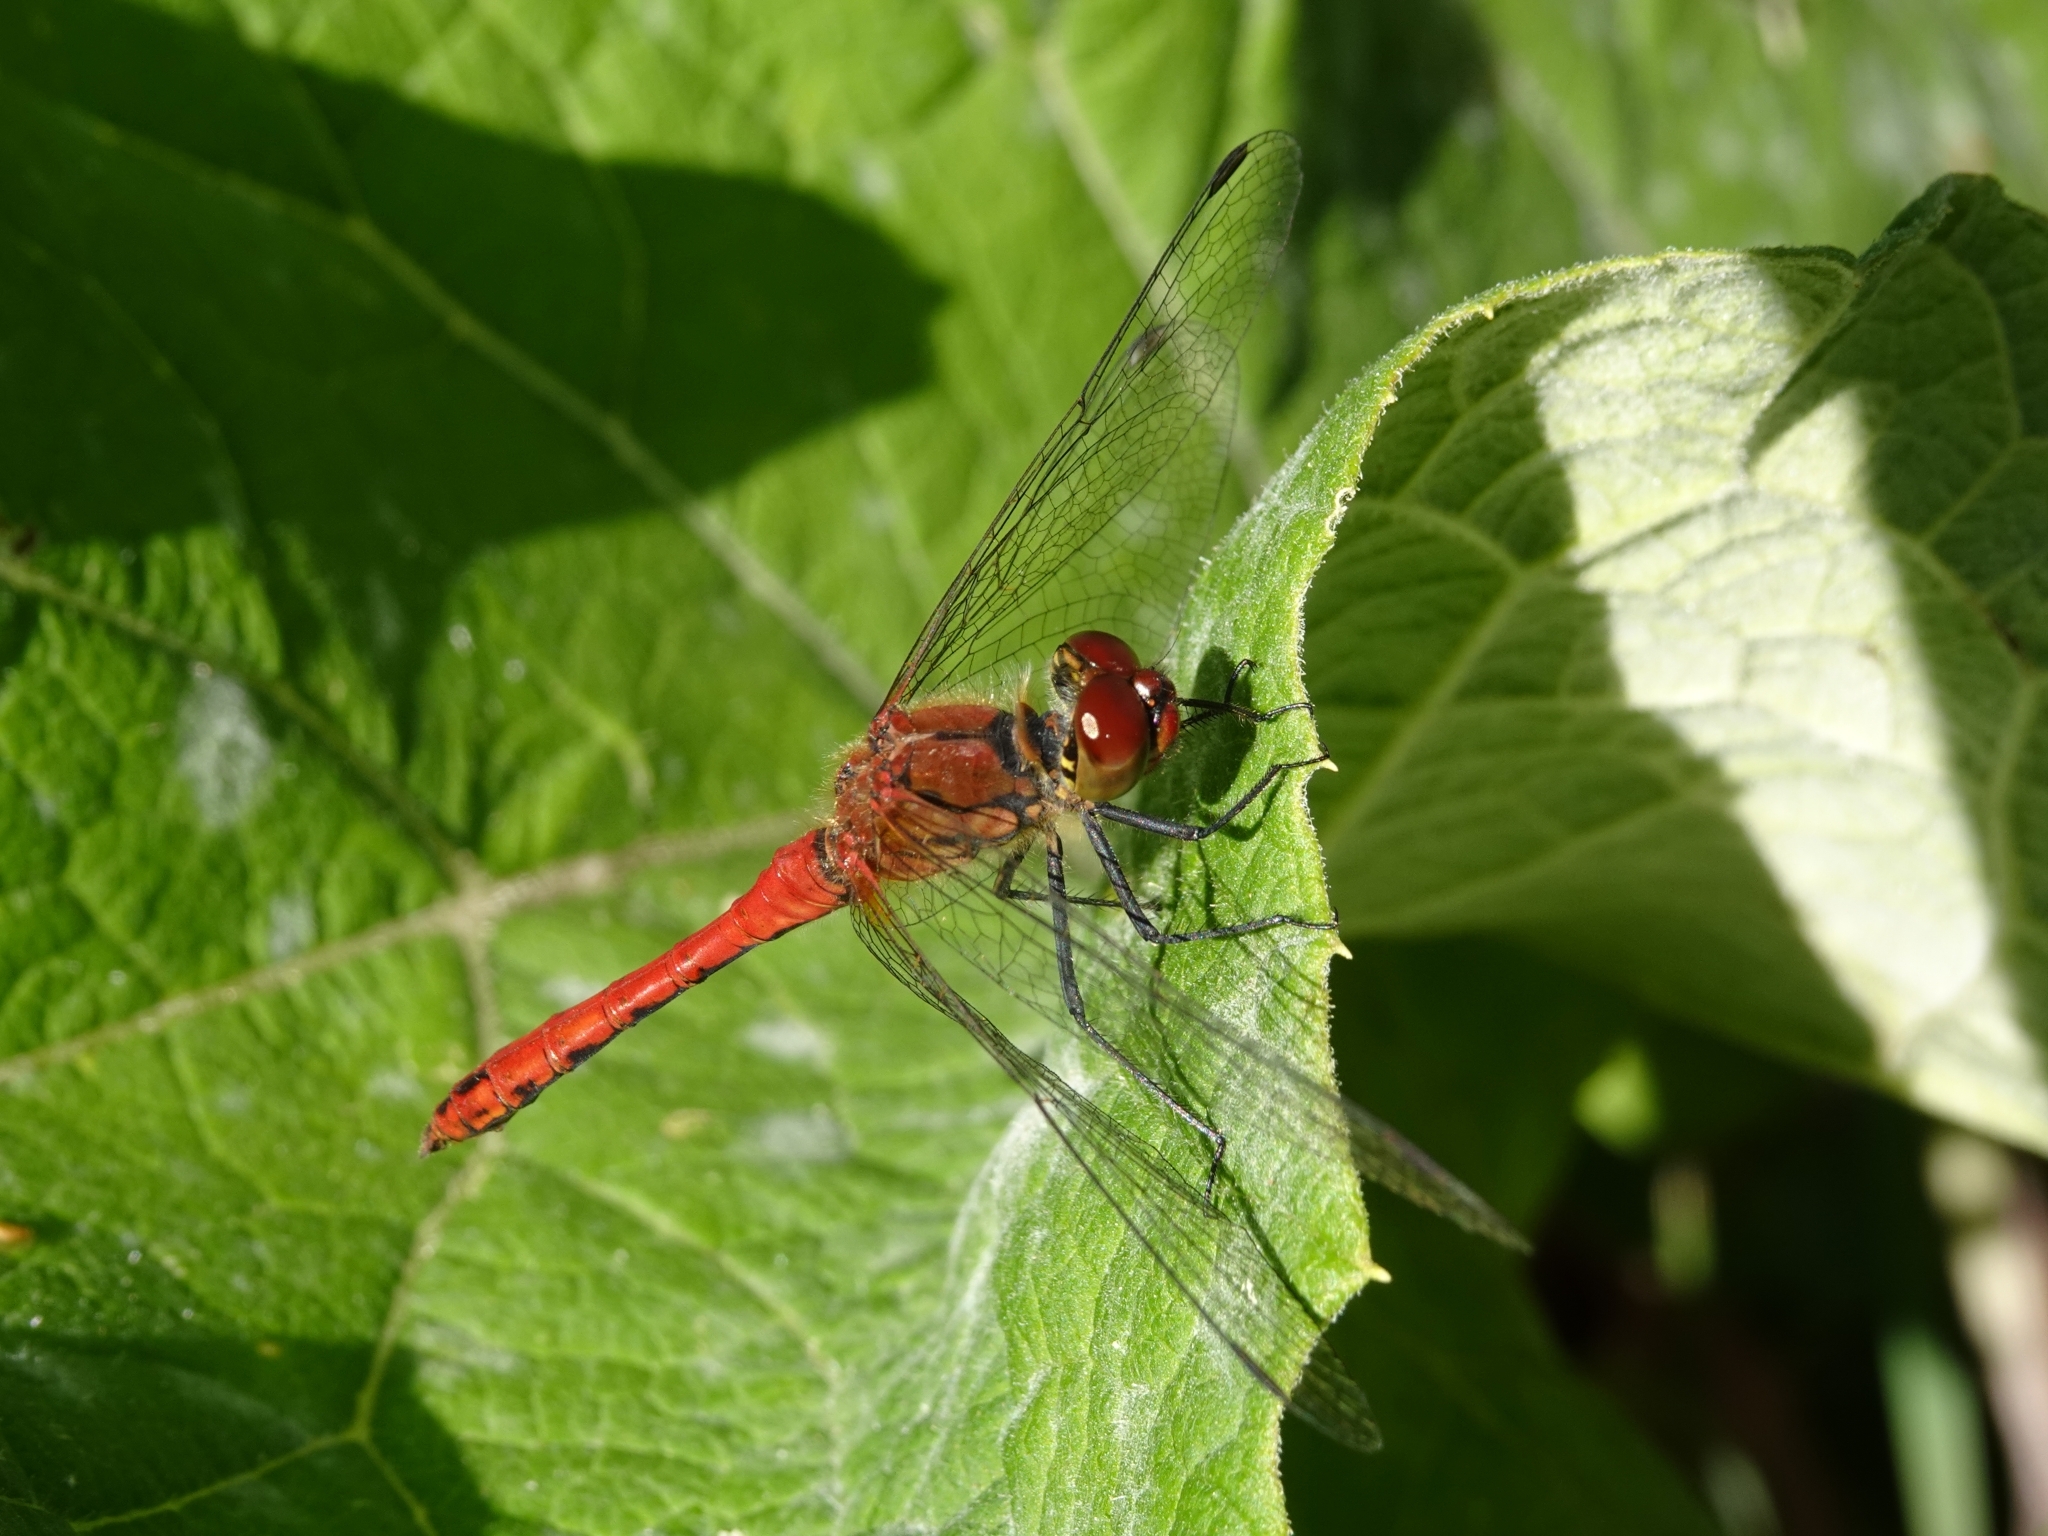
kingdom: Animalia
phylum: Arthropoda
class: Insecta
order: Odonata
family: Libellulidae
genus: Sympetrum
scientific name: Sympetrum sanguineum
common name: Ruddy darter
